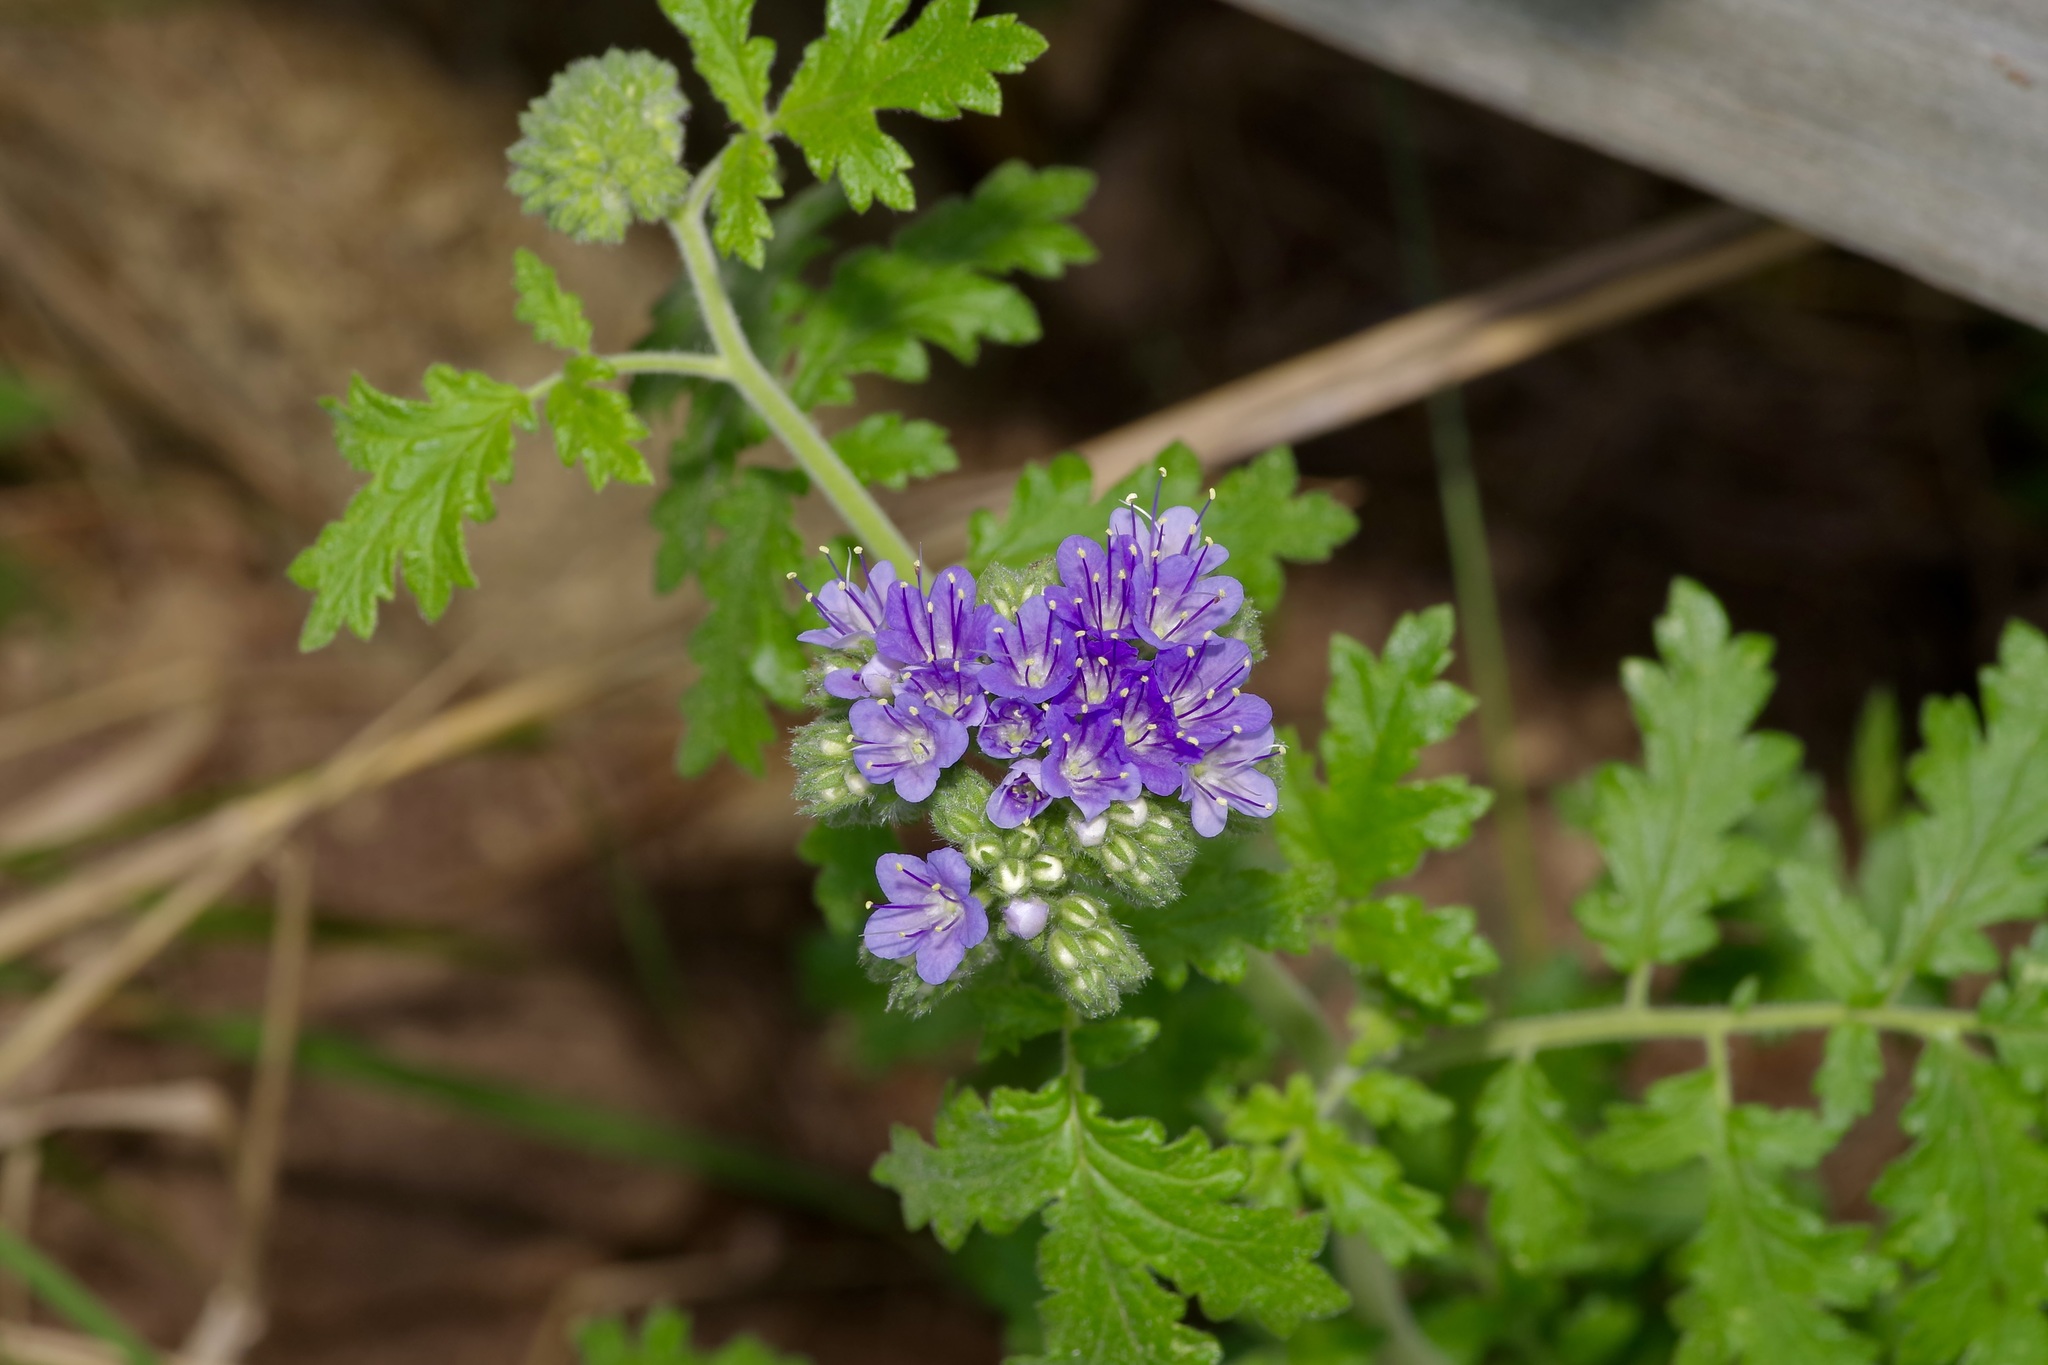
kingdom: Plantae
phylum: Tracheophyta
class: Magnoliopsida
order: Boraginales
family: Hydrophyllaceae
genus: Phacelia
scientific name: Phacelia congesta
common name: Blue curls
